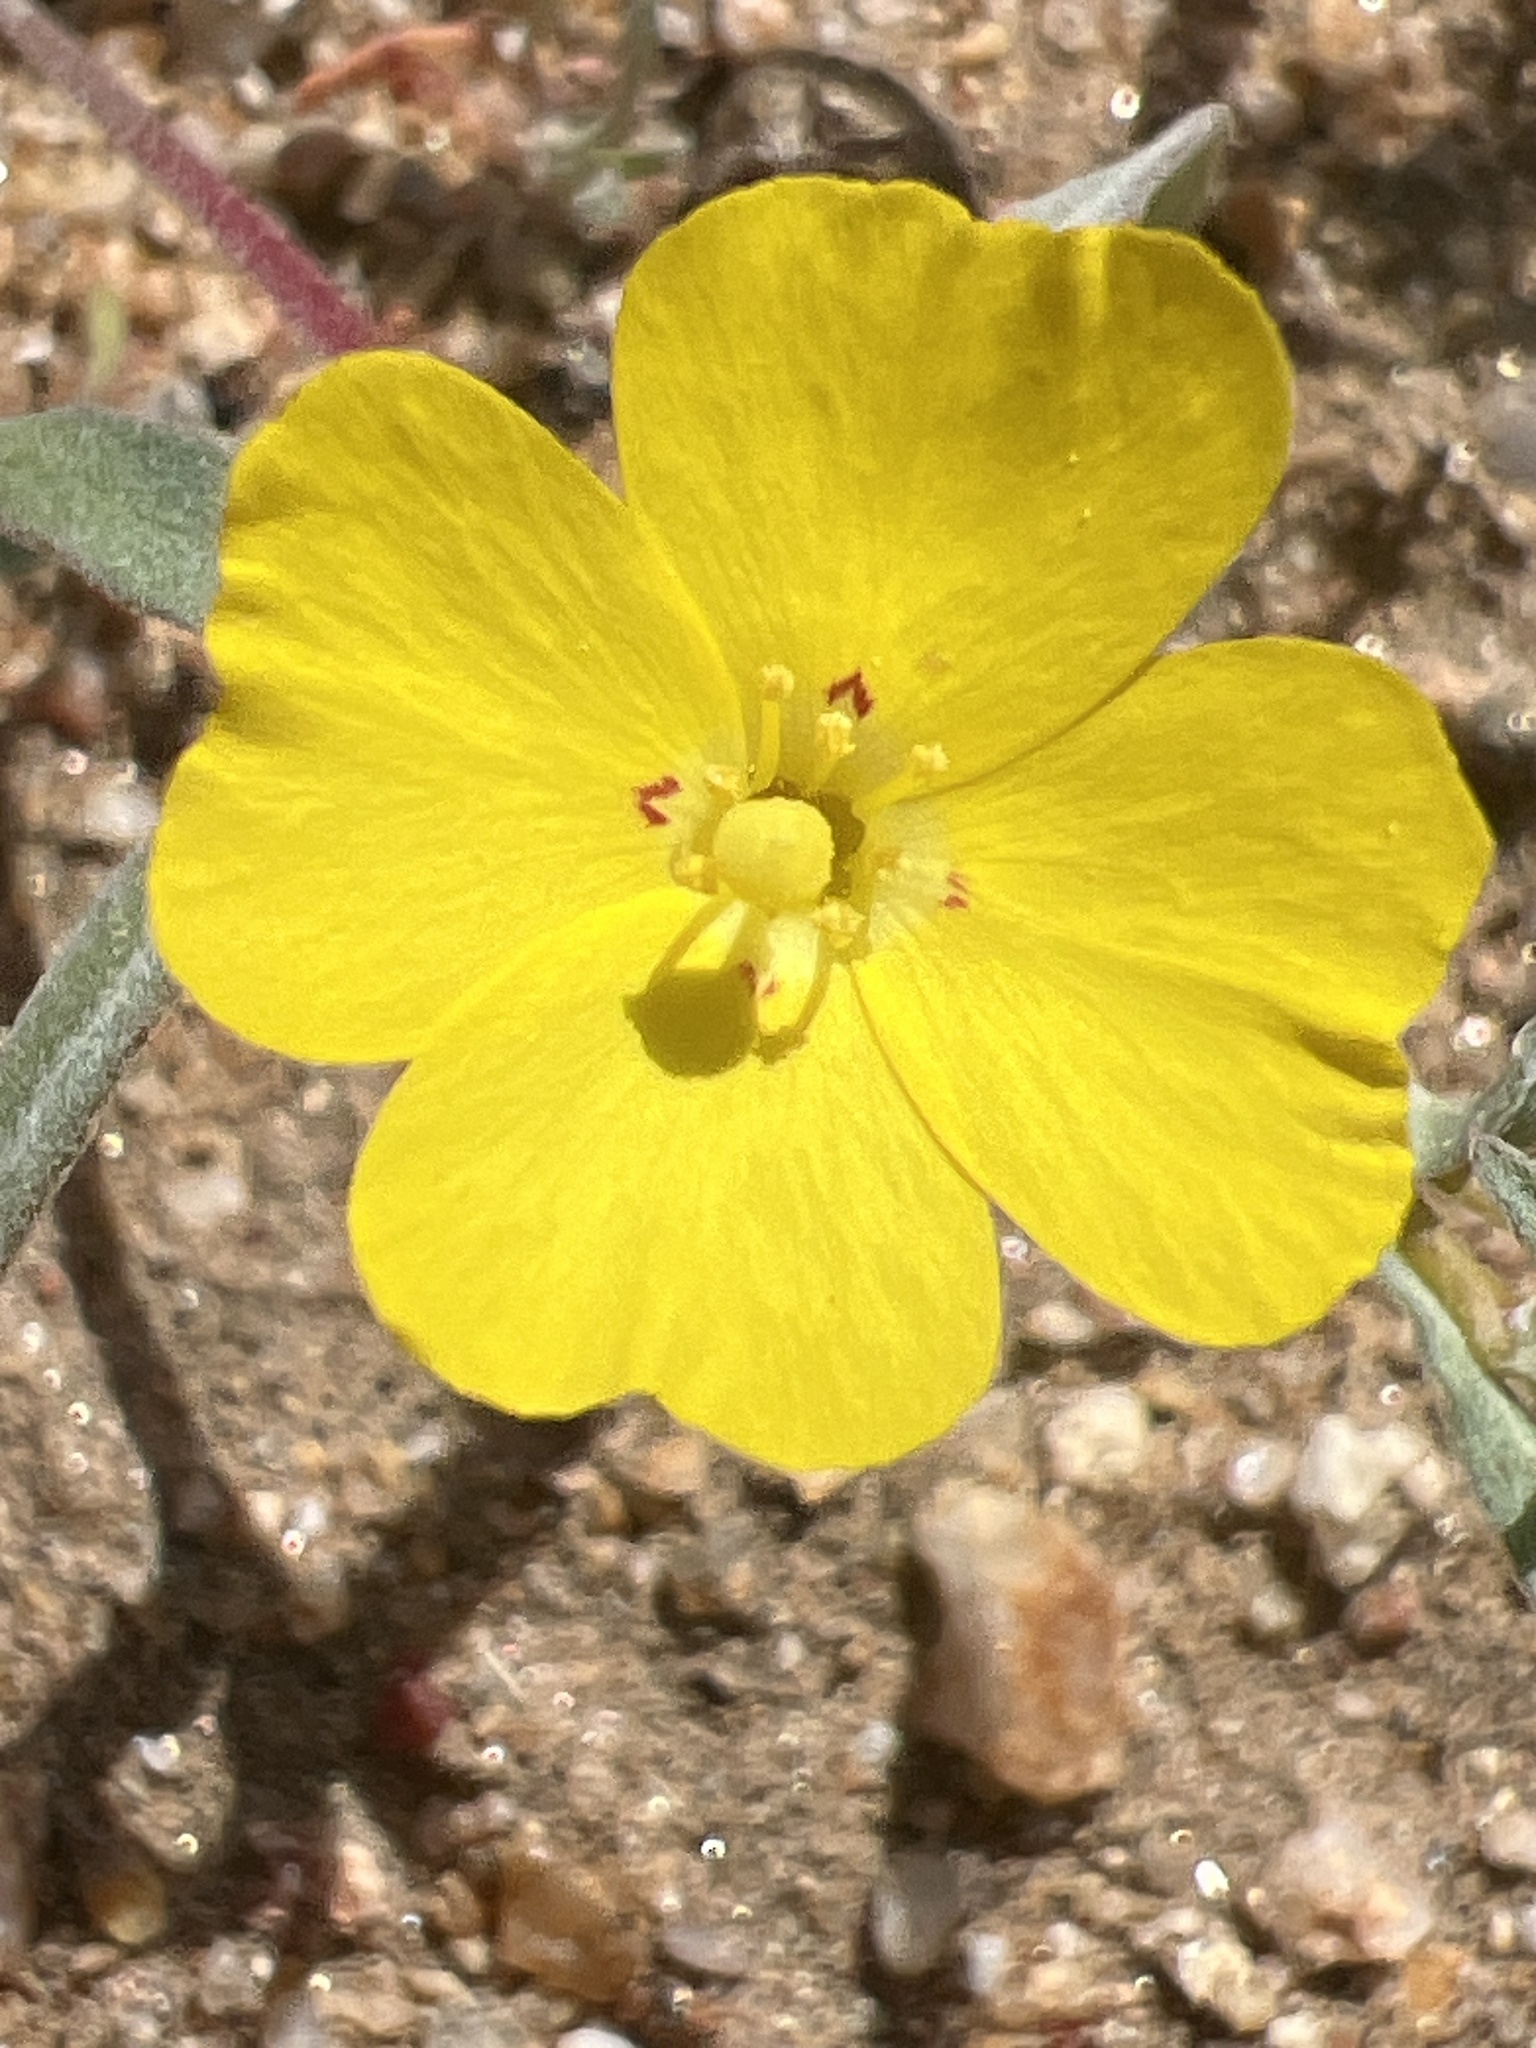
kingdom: Plantae
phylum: Tracheophyta
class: Magnoliopsida
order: Myrtales
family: Onagraceae
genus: Camissoniopsis
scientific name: Camissoniopsis pallida
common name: Paleyellow suncup
